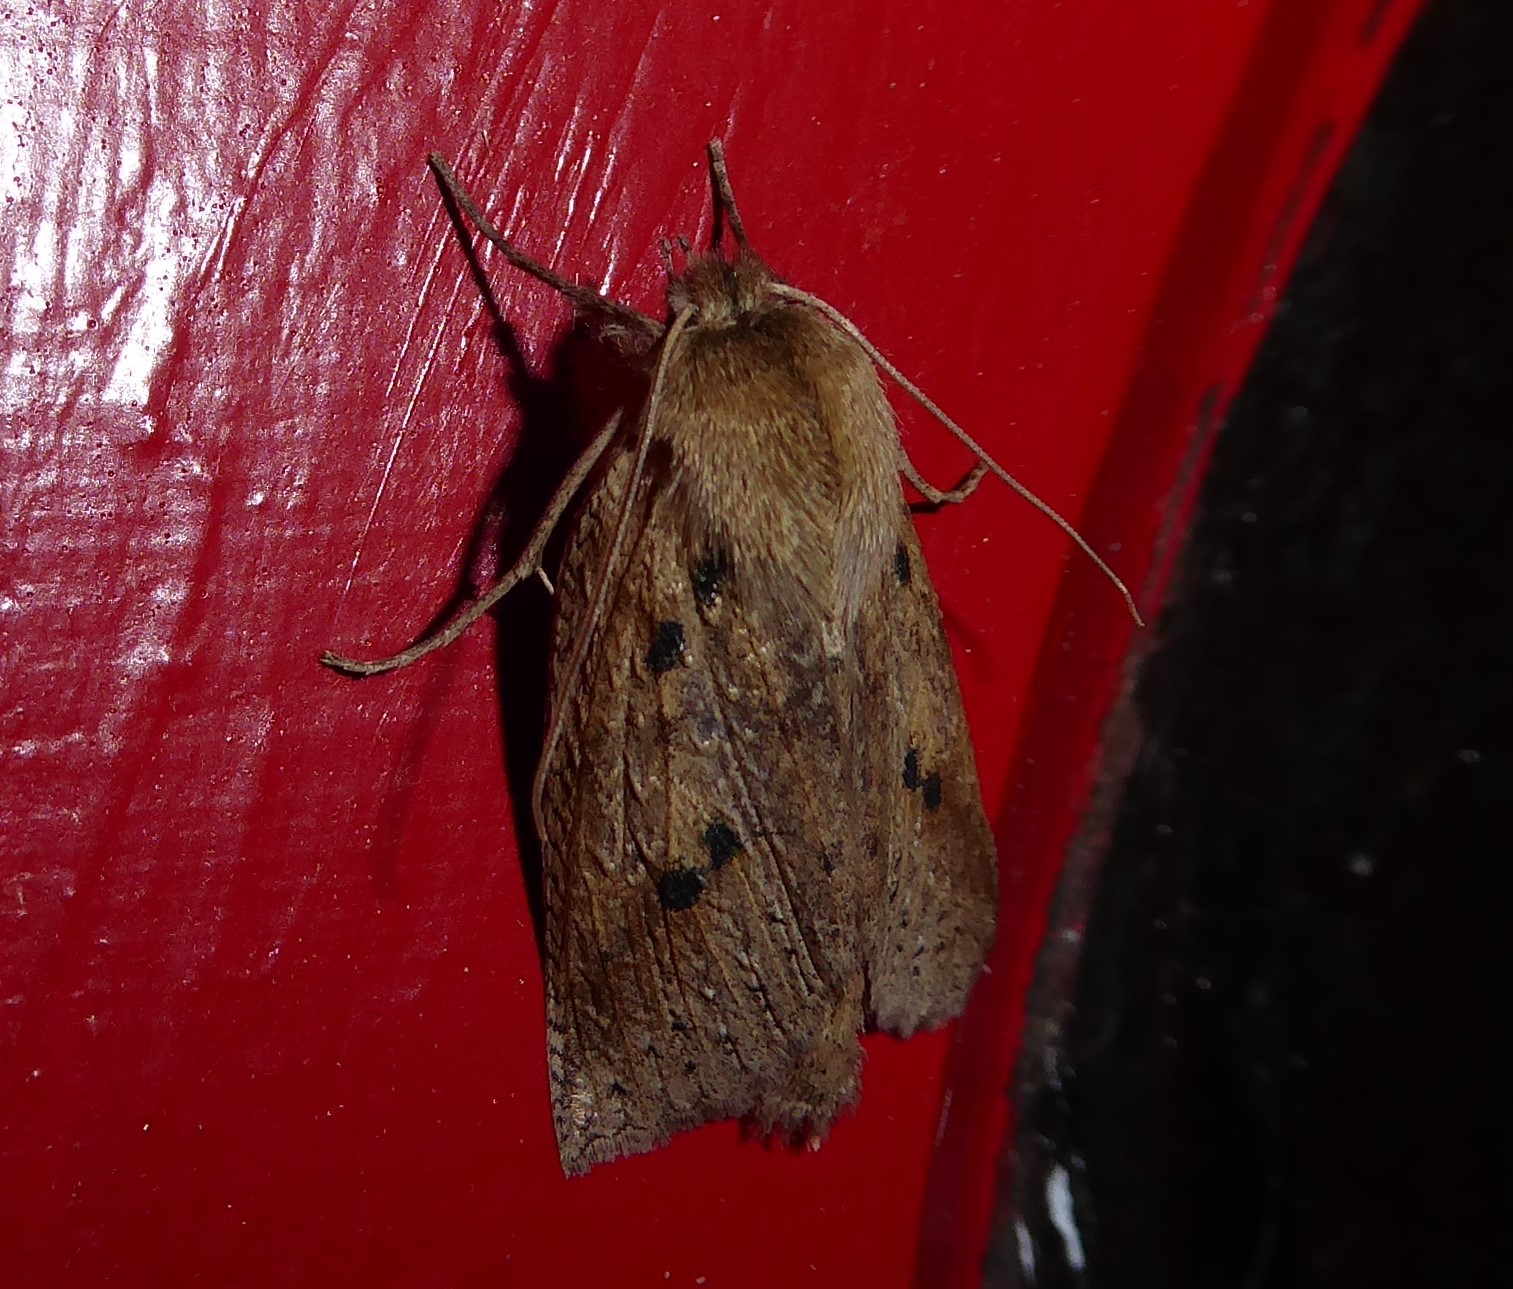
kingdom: Animalia
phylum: Arthropoda
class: Insecta
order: Lepidoptera
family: Geometridae
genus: Declana
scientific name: Declana leptomera
